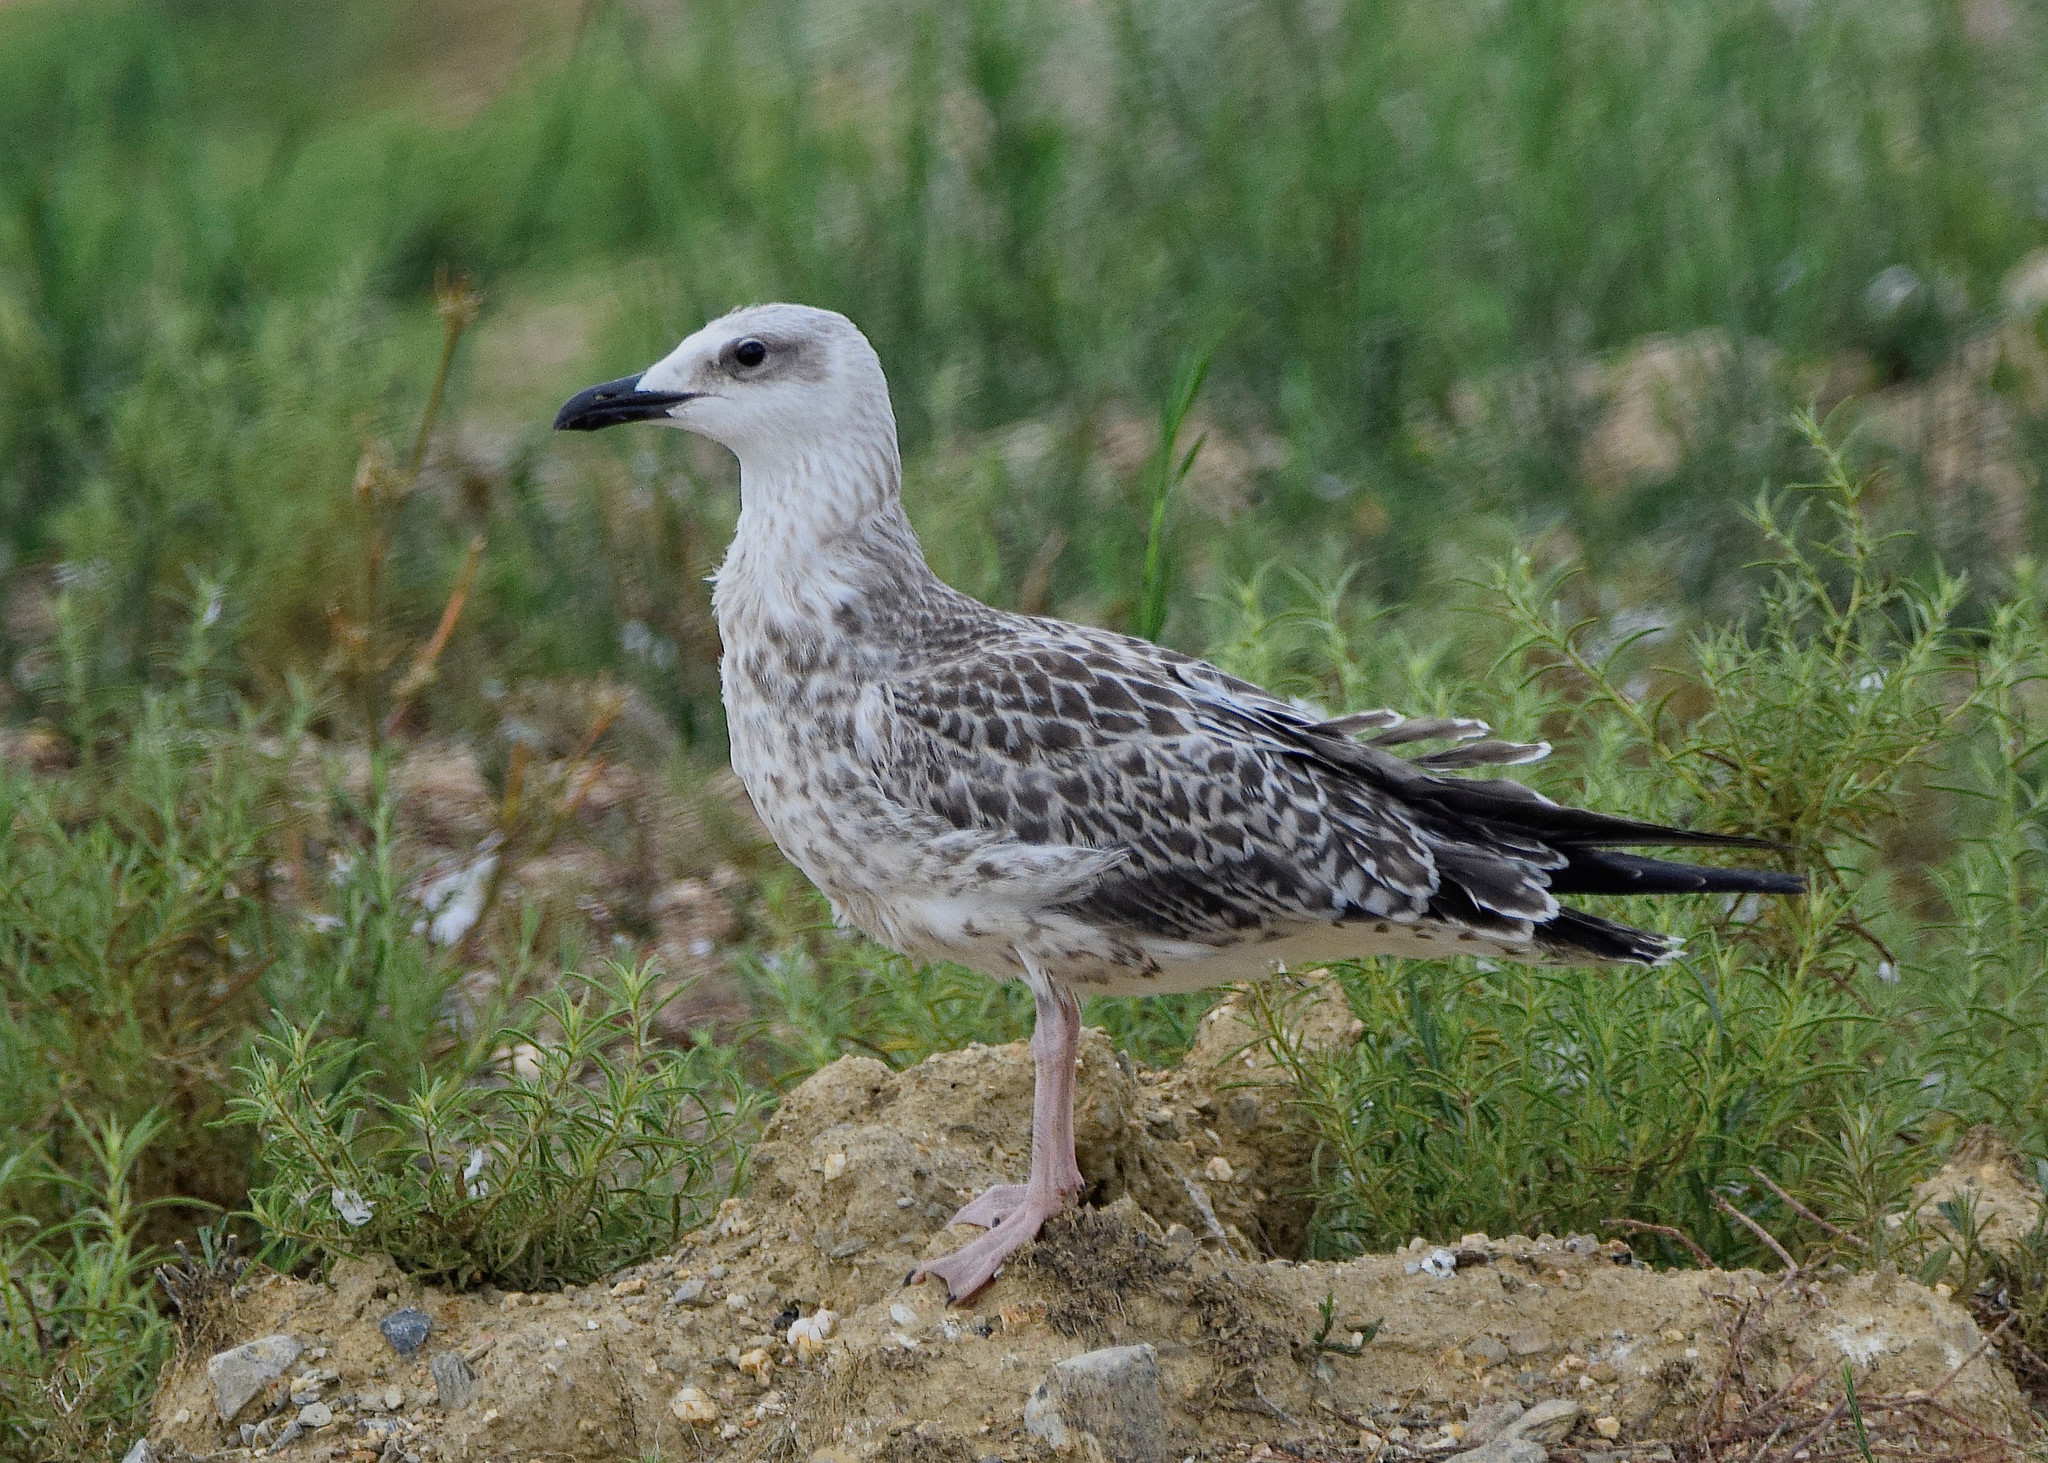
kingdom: Animalia
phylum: Chordata
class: Aves
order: Charadriiformes
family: Laridae
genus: Larus
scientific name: Larus michahellis
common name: Yellow-legged gull
